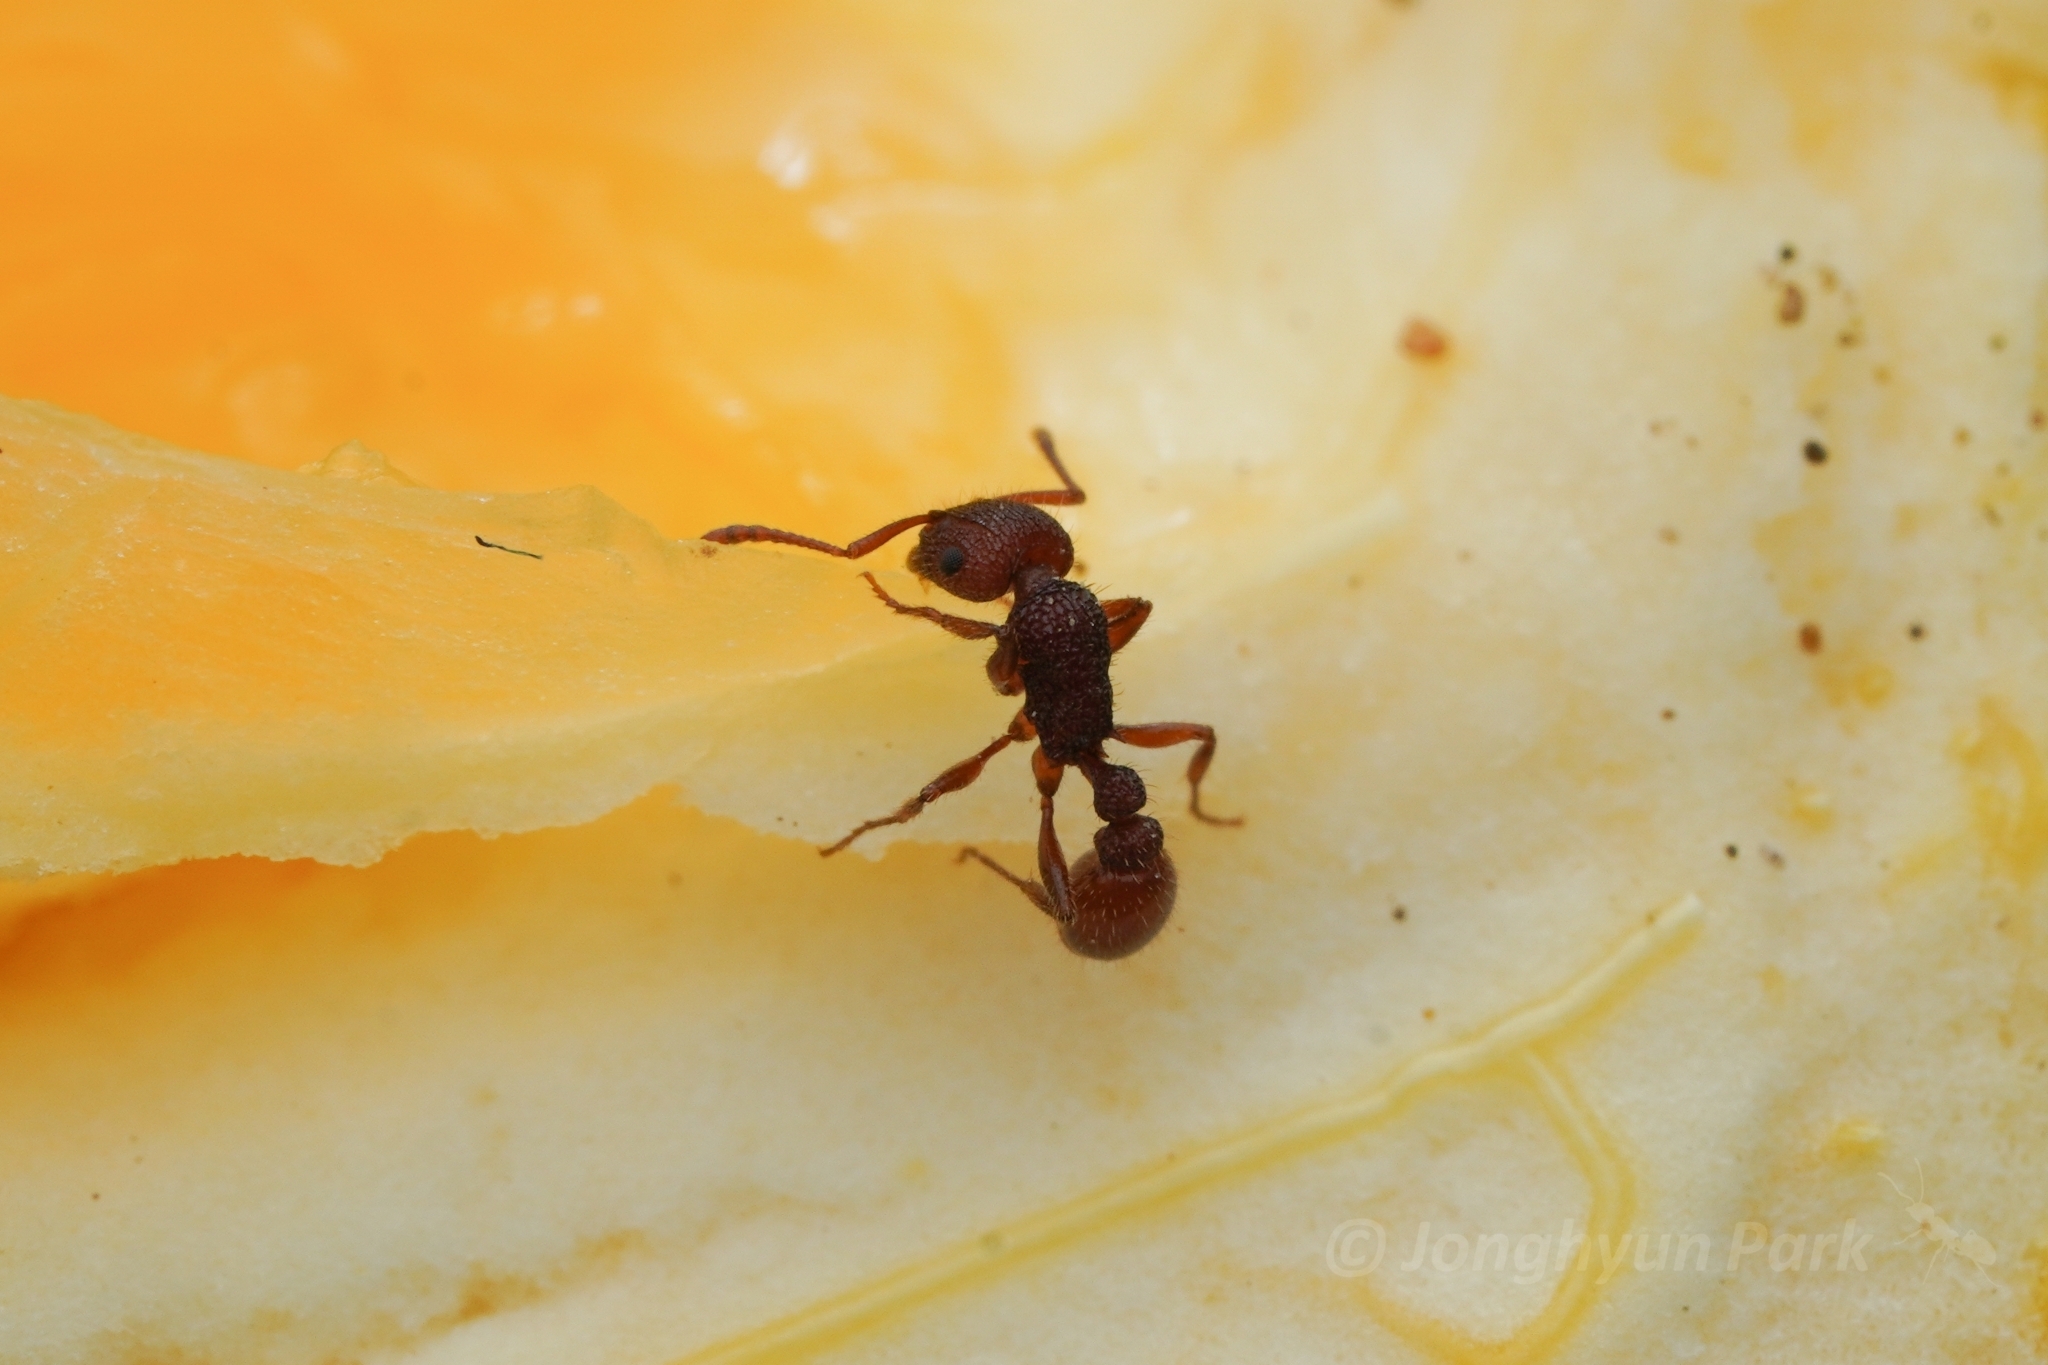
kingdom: Animalia
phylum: Arthropoda
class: Insecta
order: Hymenoptera
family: Formicidae
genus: Tetramorium
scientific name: Tetramorium hispidum
